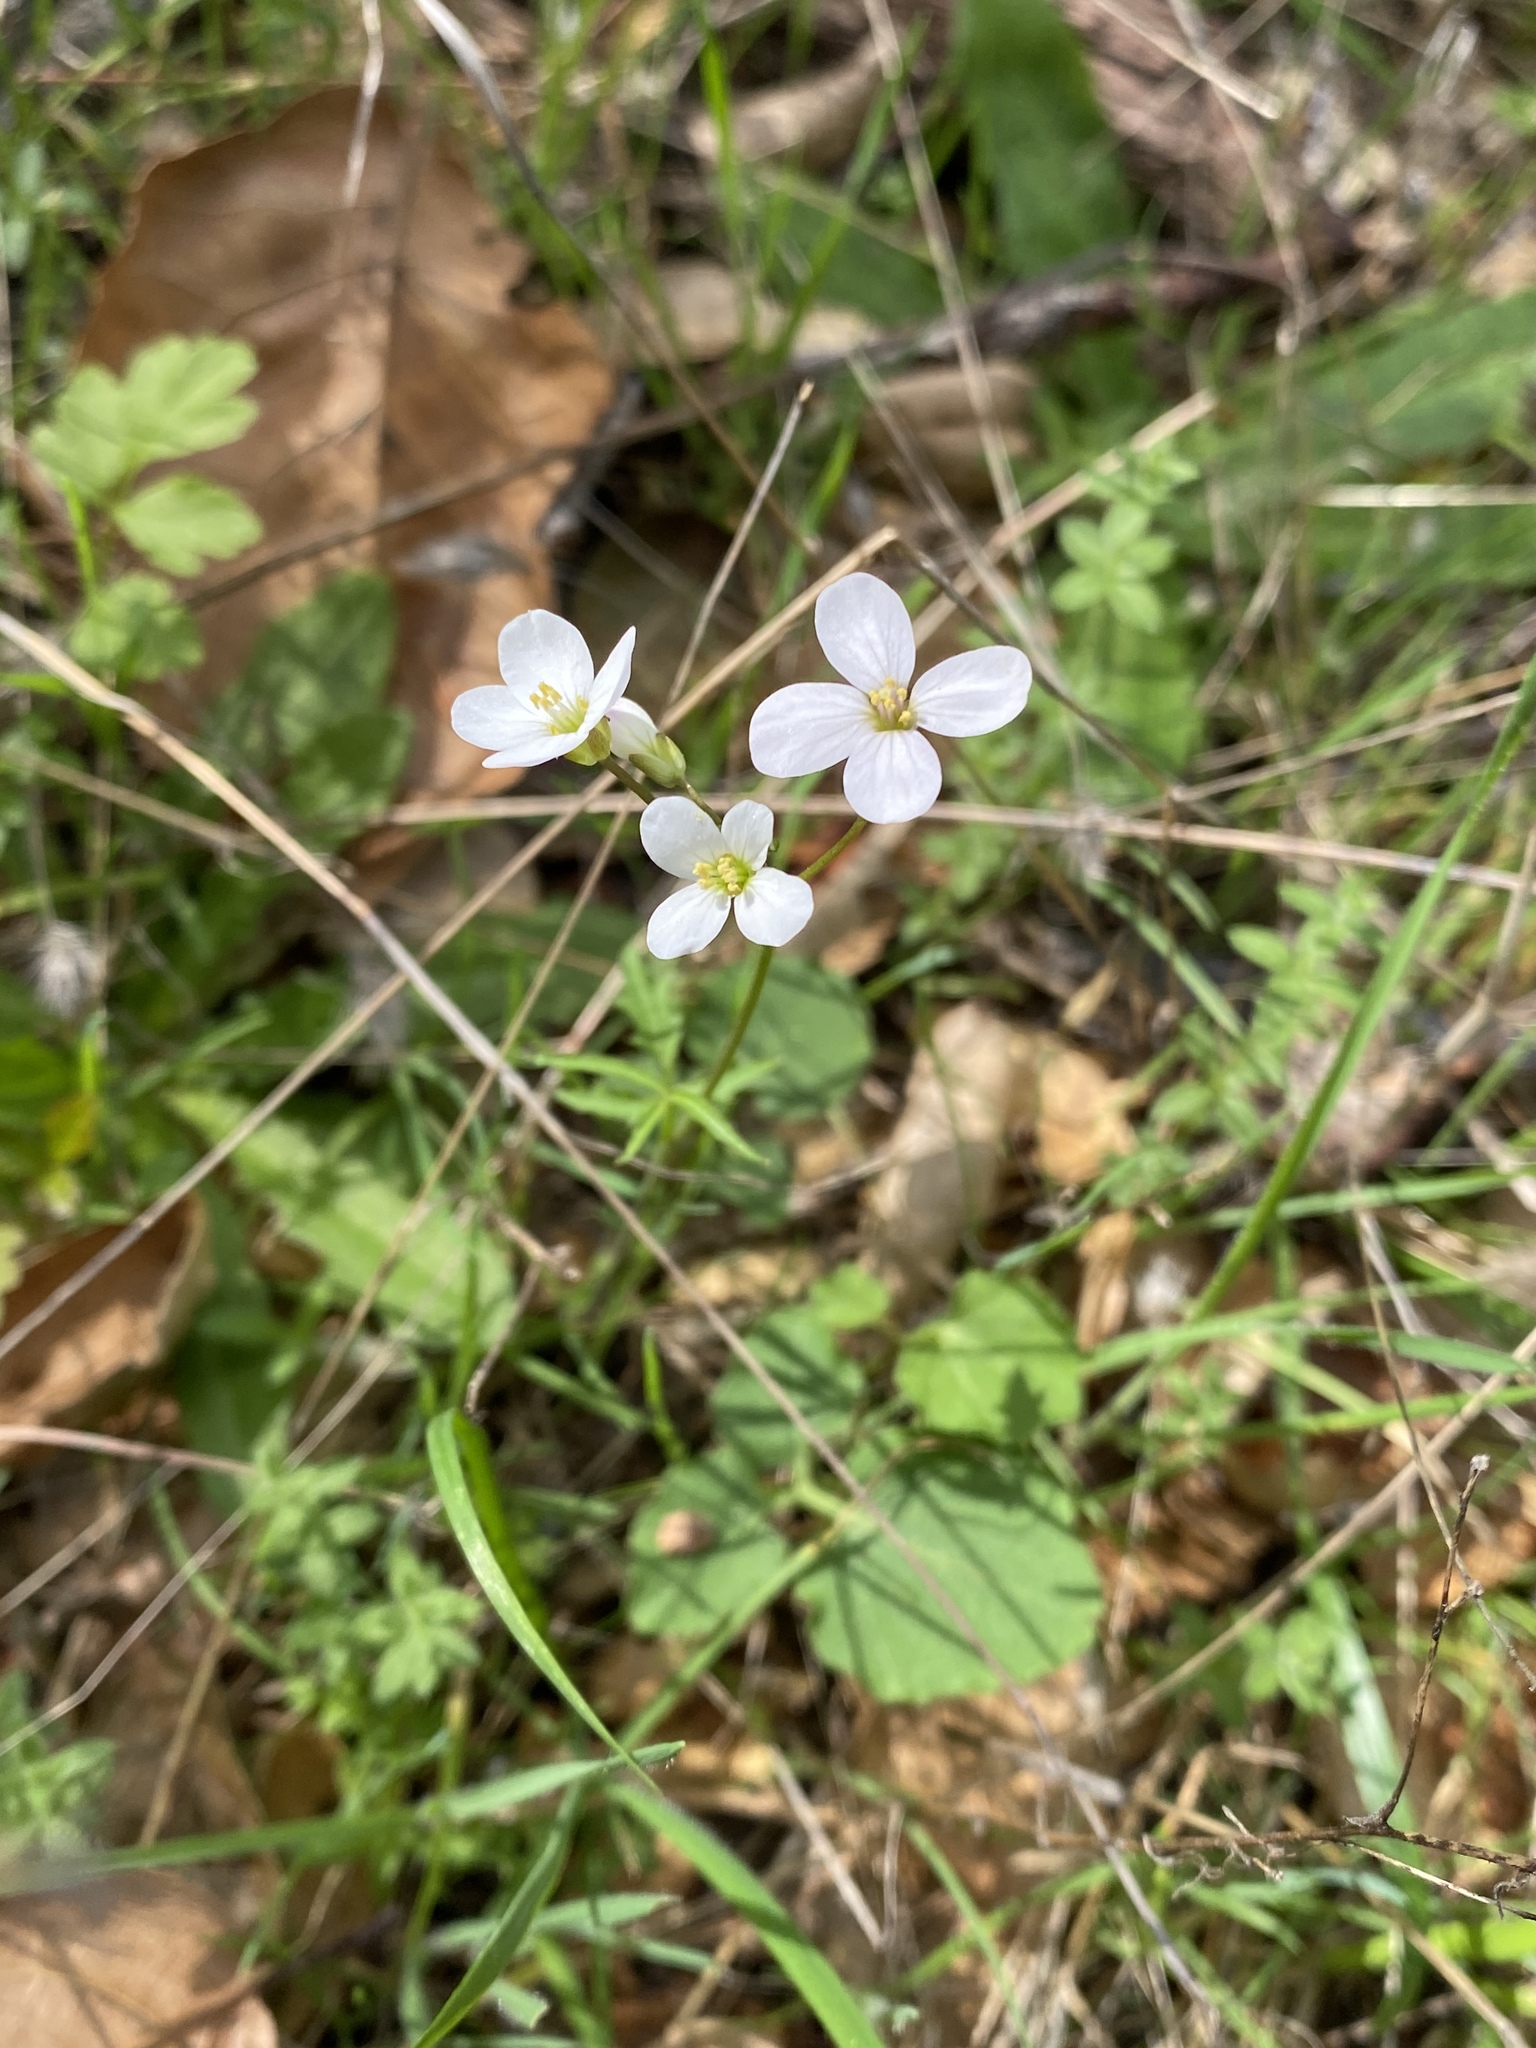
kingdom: Plantae
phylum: Tracheophyta
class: Magnoliopsida
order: Brassicales
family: Brassicaceae
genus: Cardamine
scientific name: Cardamine californica
